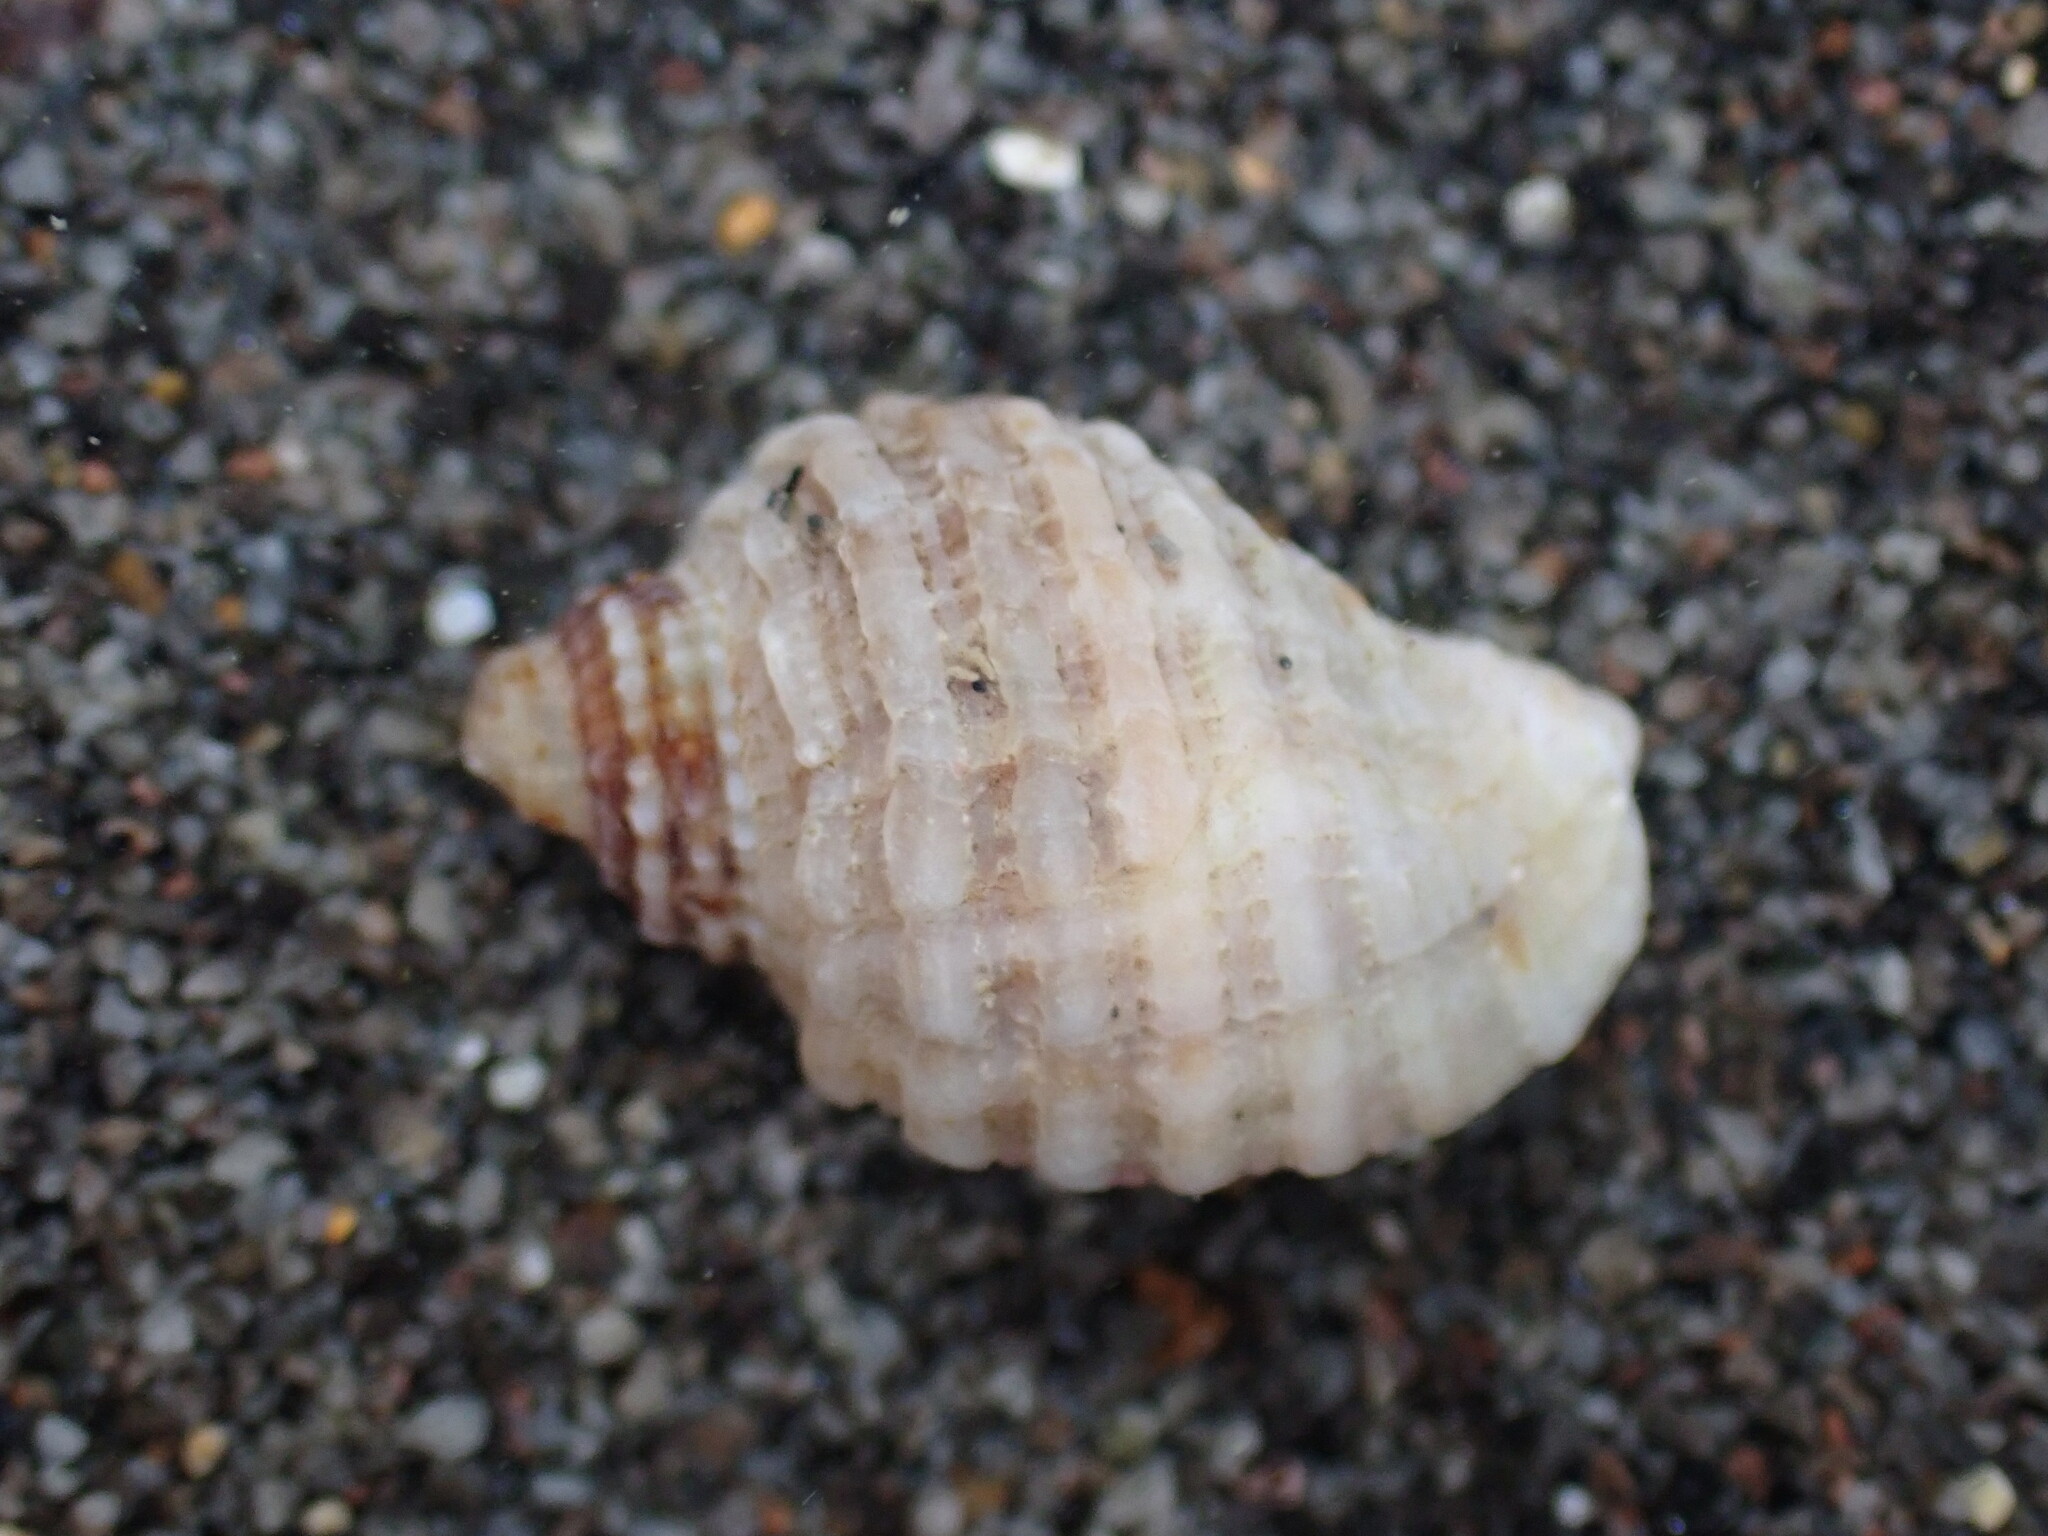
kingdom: Animalia
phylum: Mollusca
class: Gastropoda
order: Neogastropoda
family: Muricidae
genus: Dicathais
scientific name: Dicathais orbita
